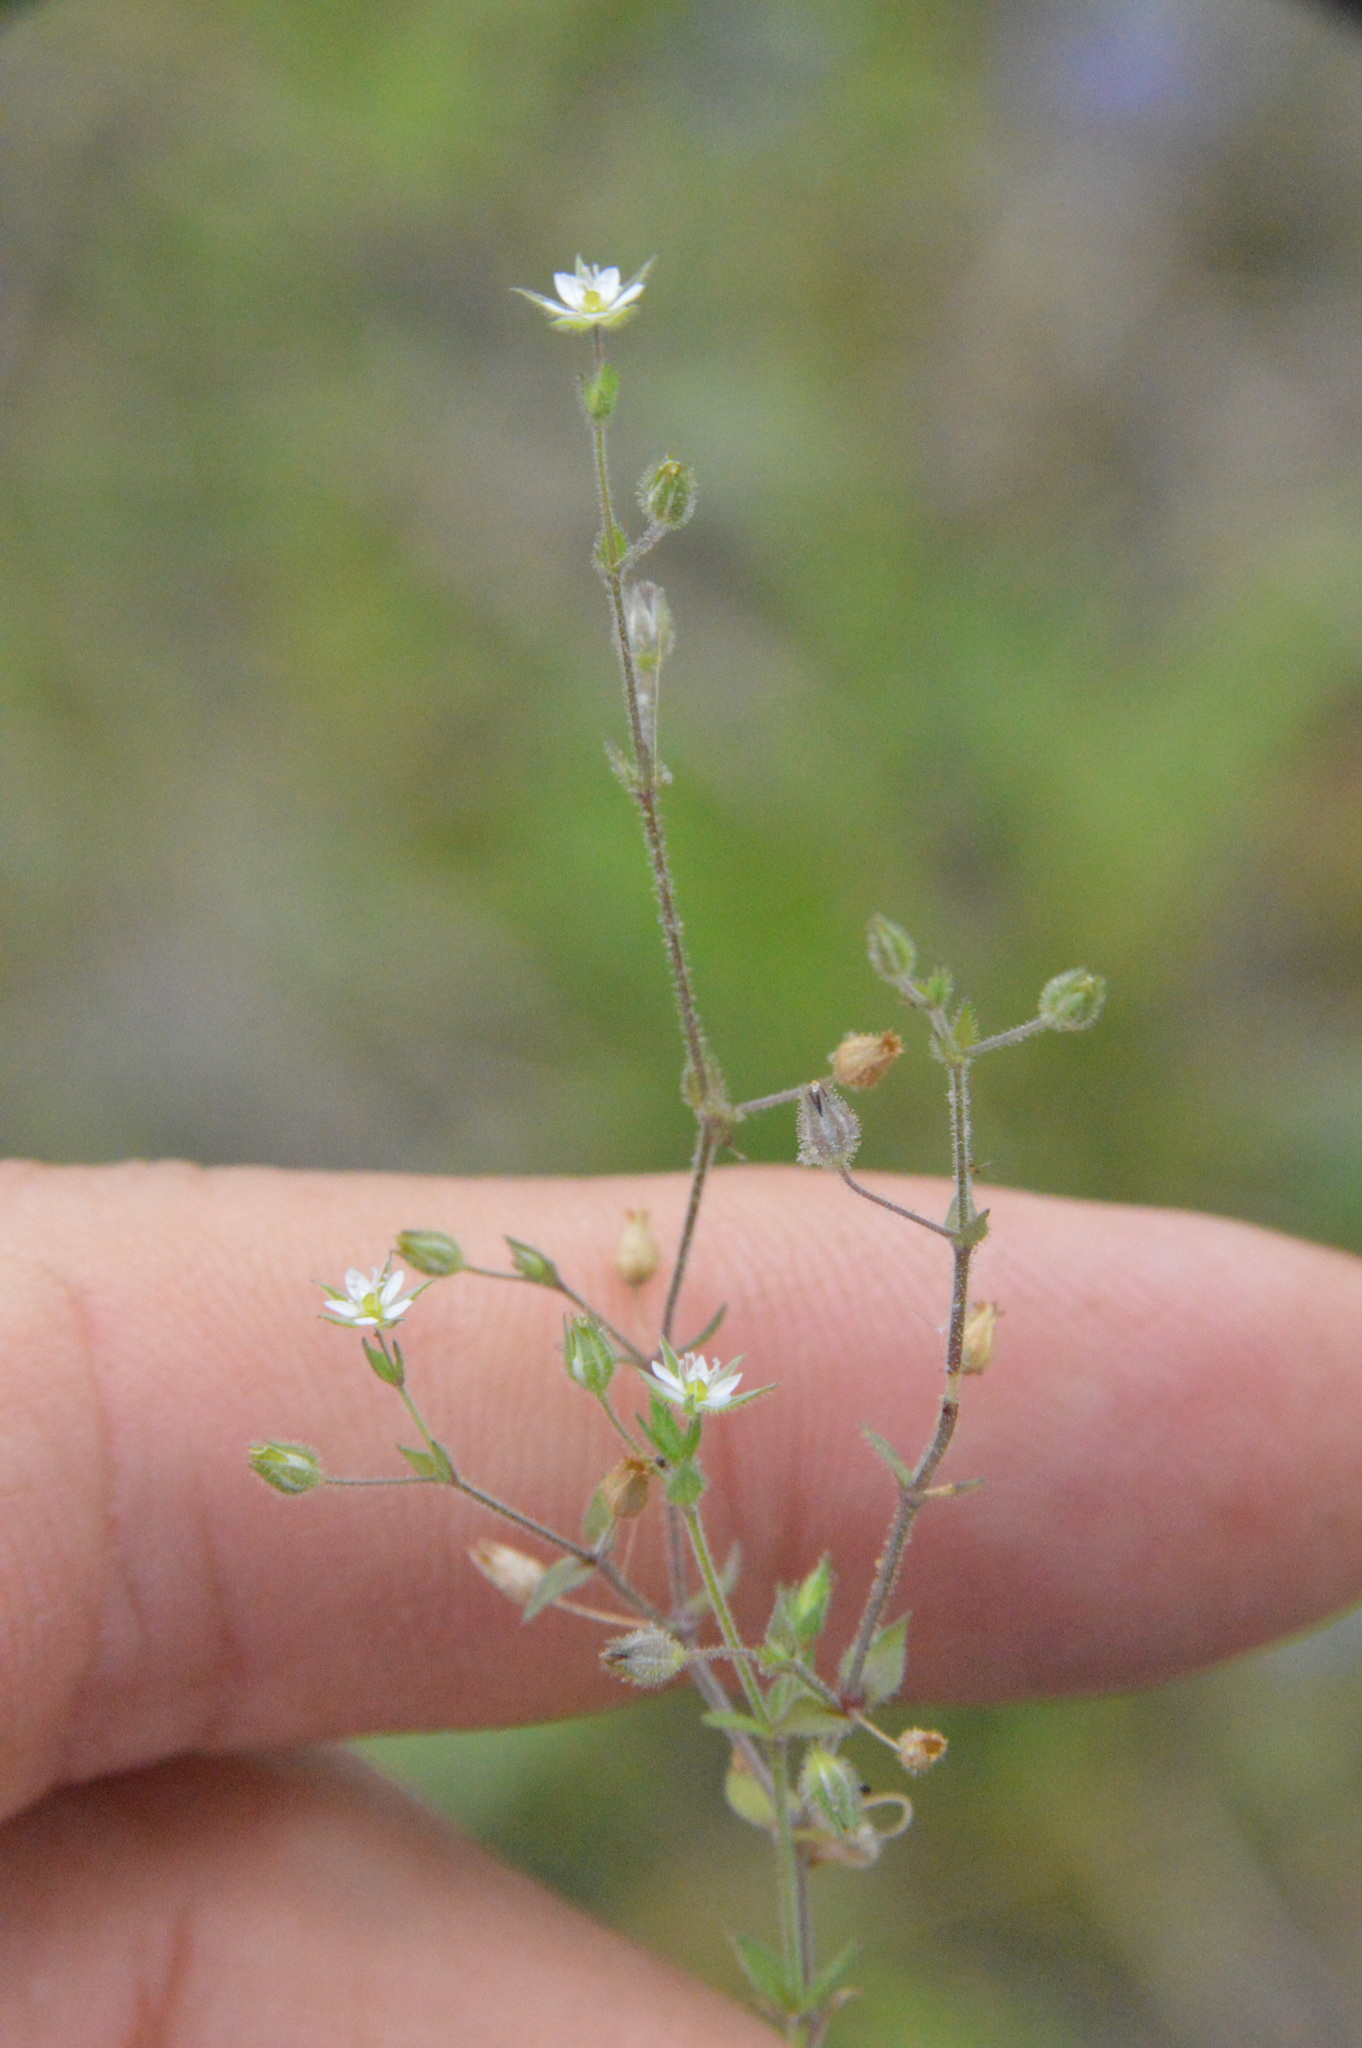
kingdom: Plantae
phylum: Tracheophyta
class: Magnoliopsida
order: Caryophyllales
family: Caryophyllaceae
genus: Arenaria
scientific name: Arenaria serpyllifolia
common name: Thyme-leaved sandwort
